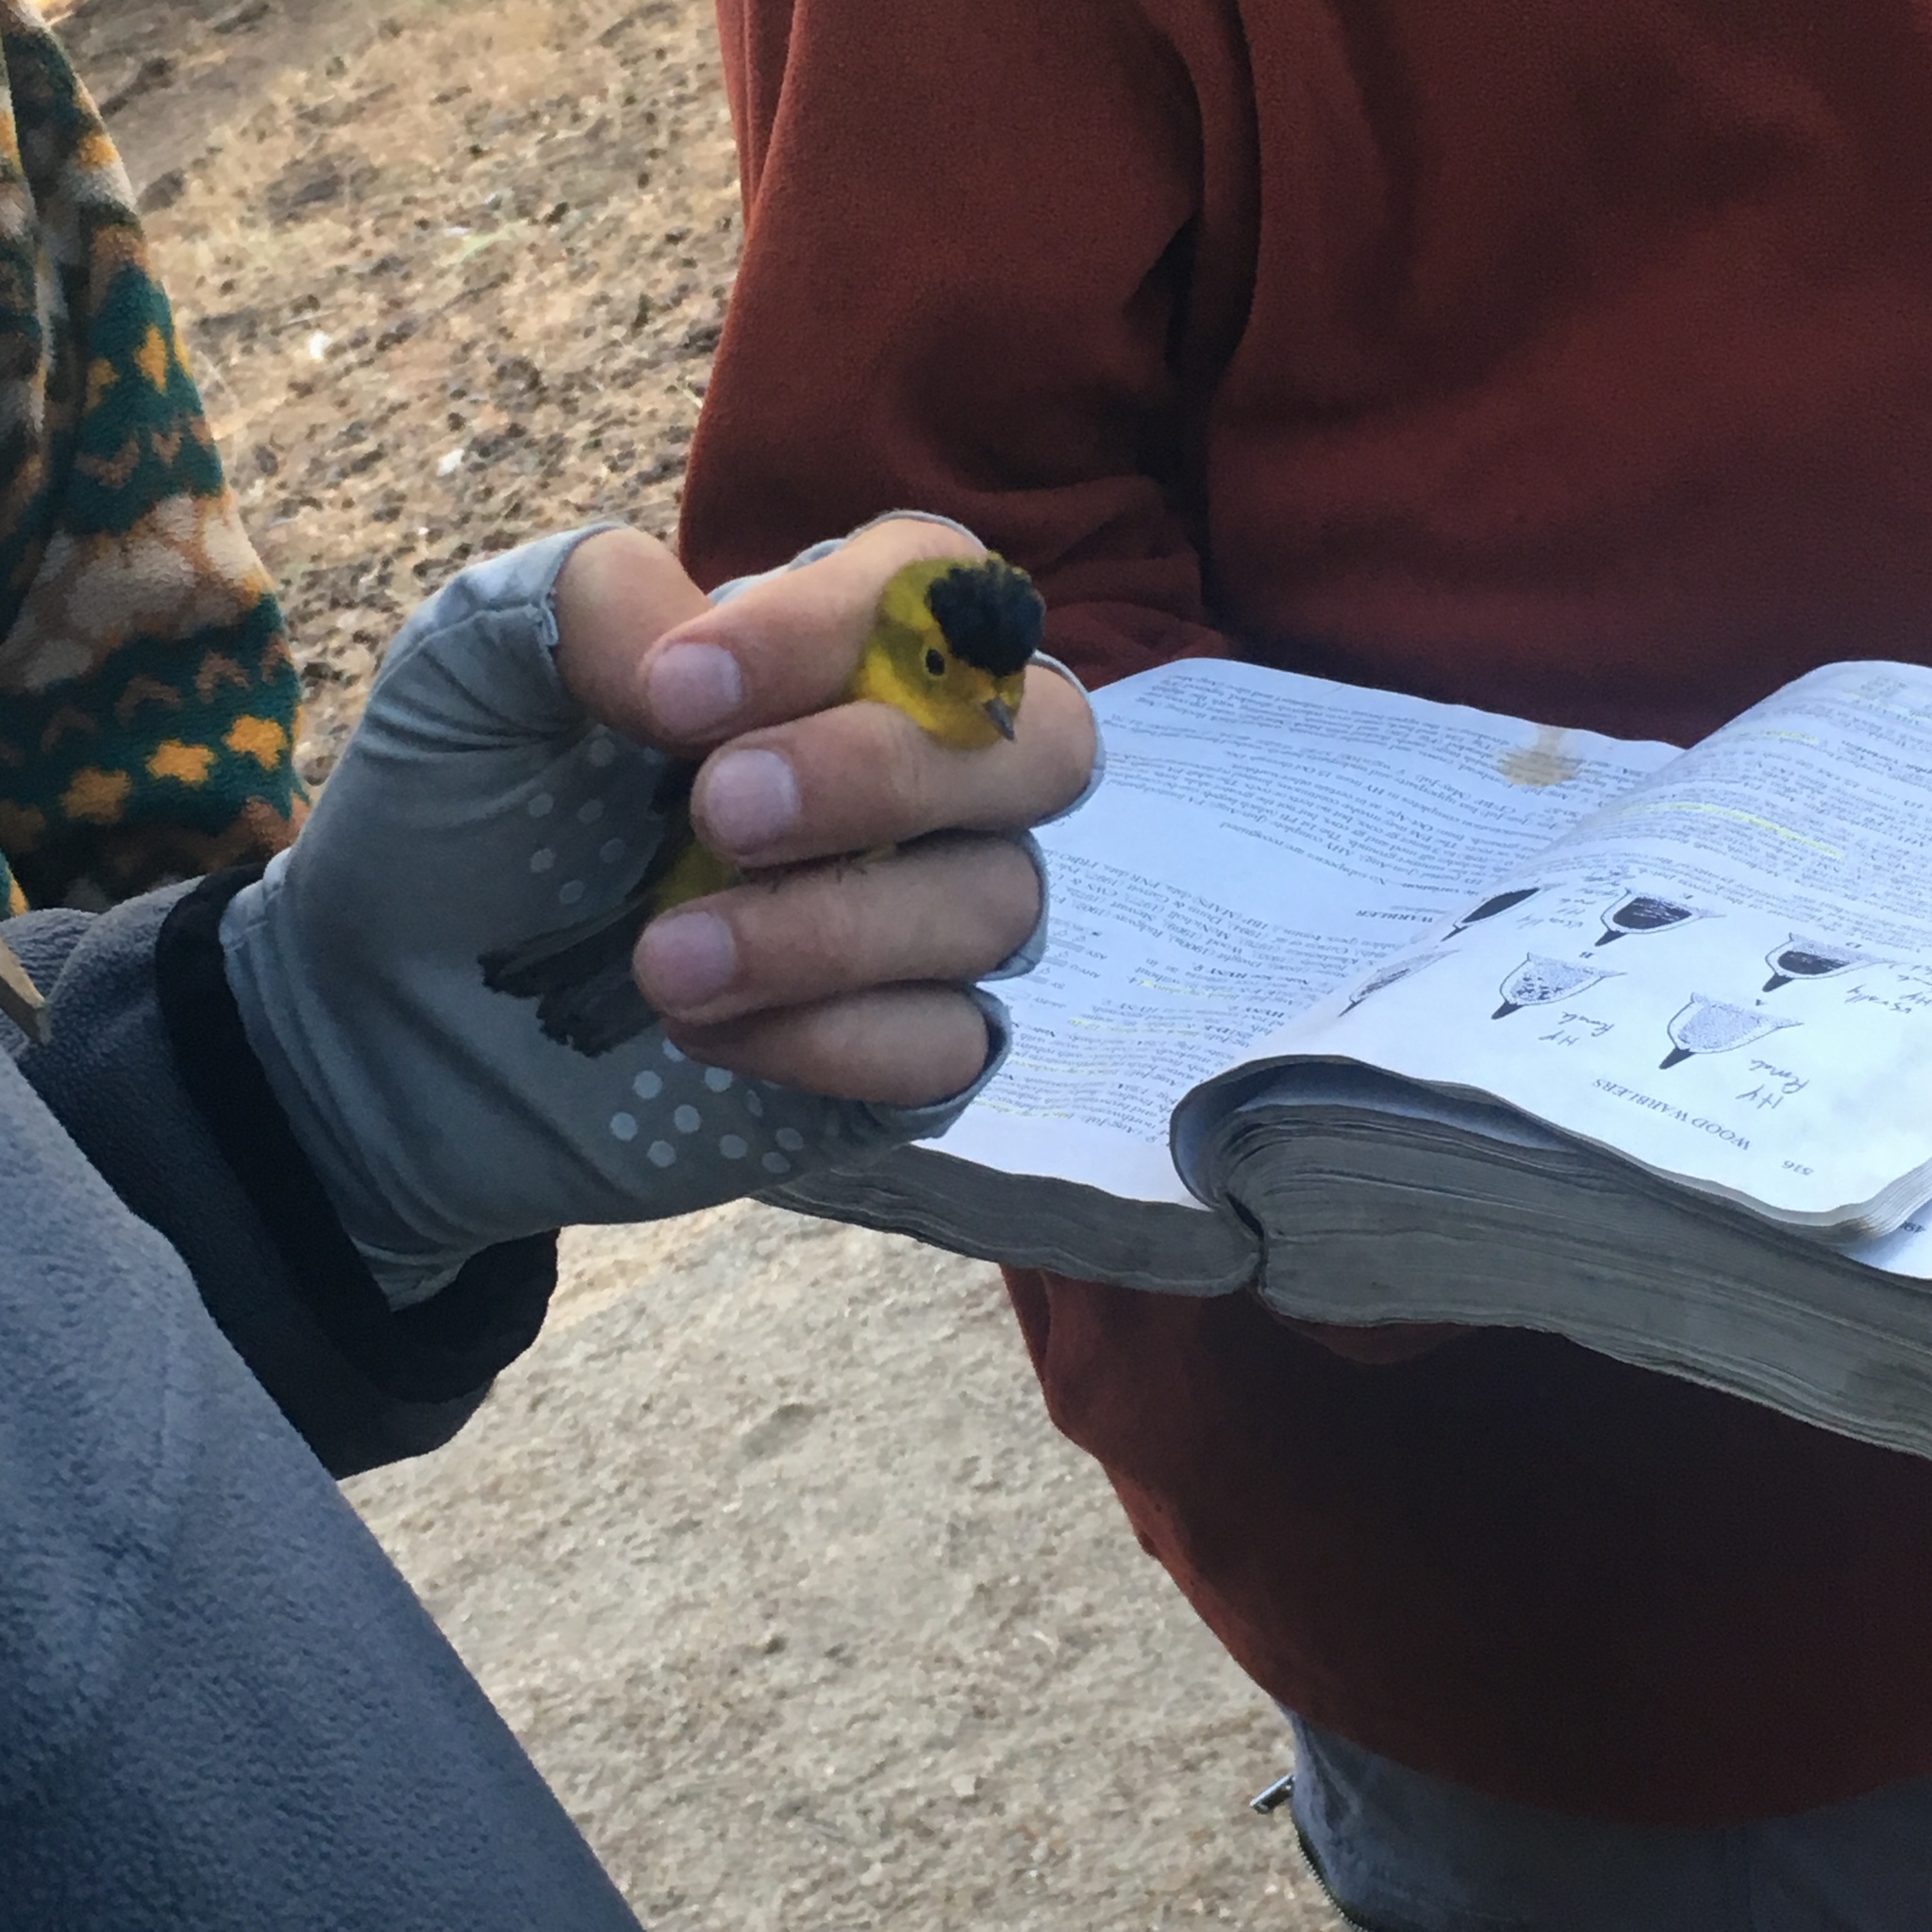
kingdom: Animalia
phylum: Chordata
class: Aves
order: Passeriformes
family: Parulidae
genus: Cardellina
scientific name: Cardellina pusilla
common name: Wilson's warbler
